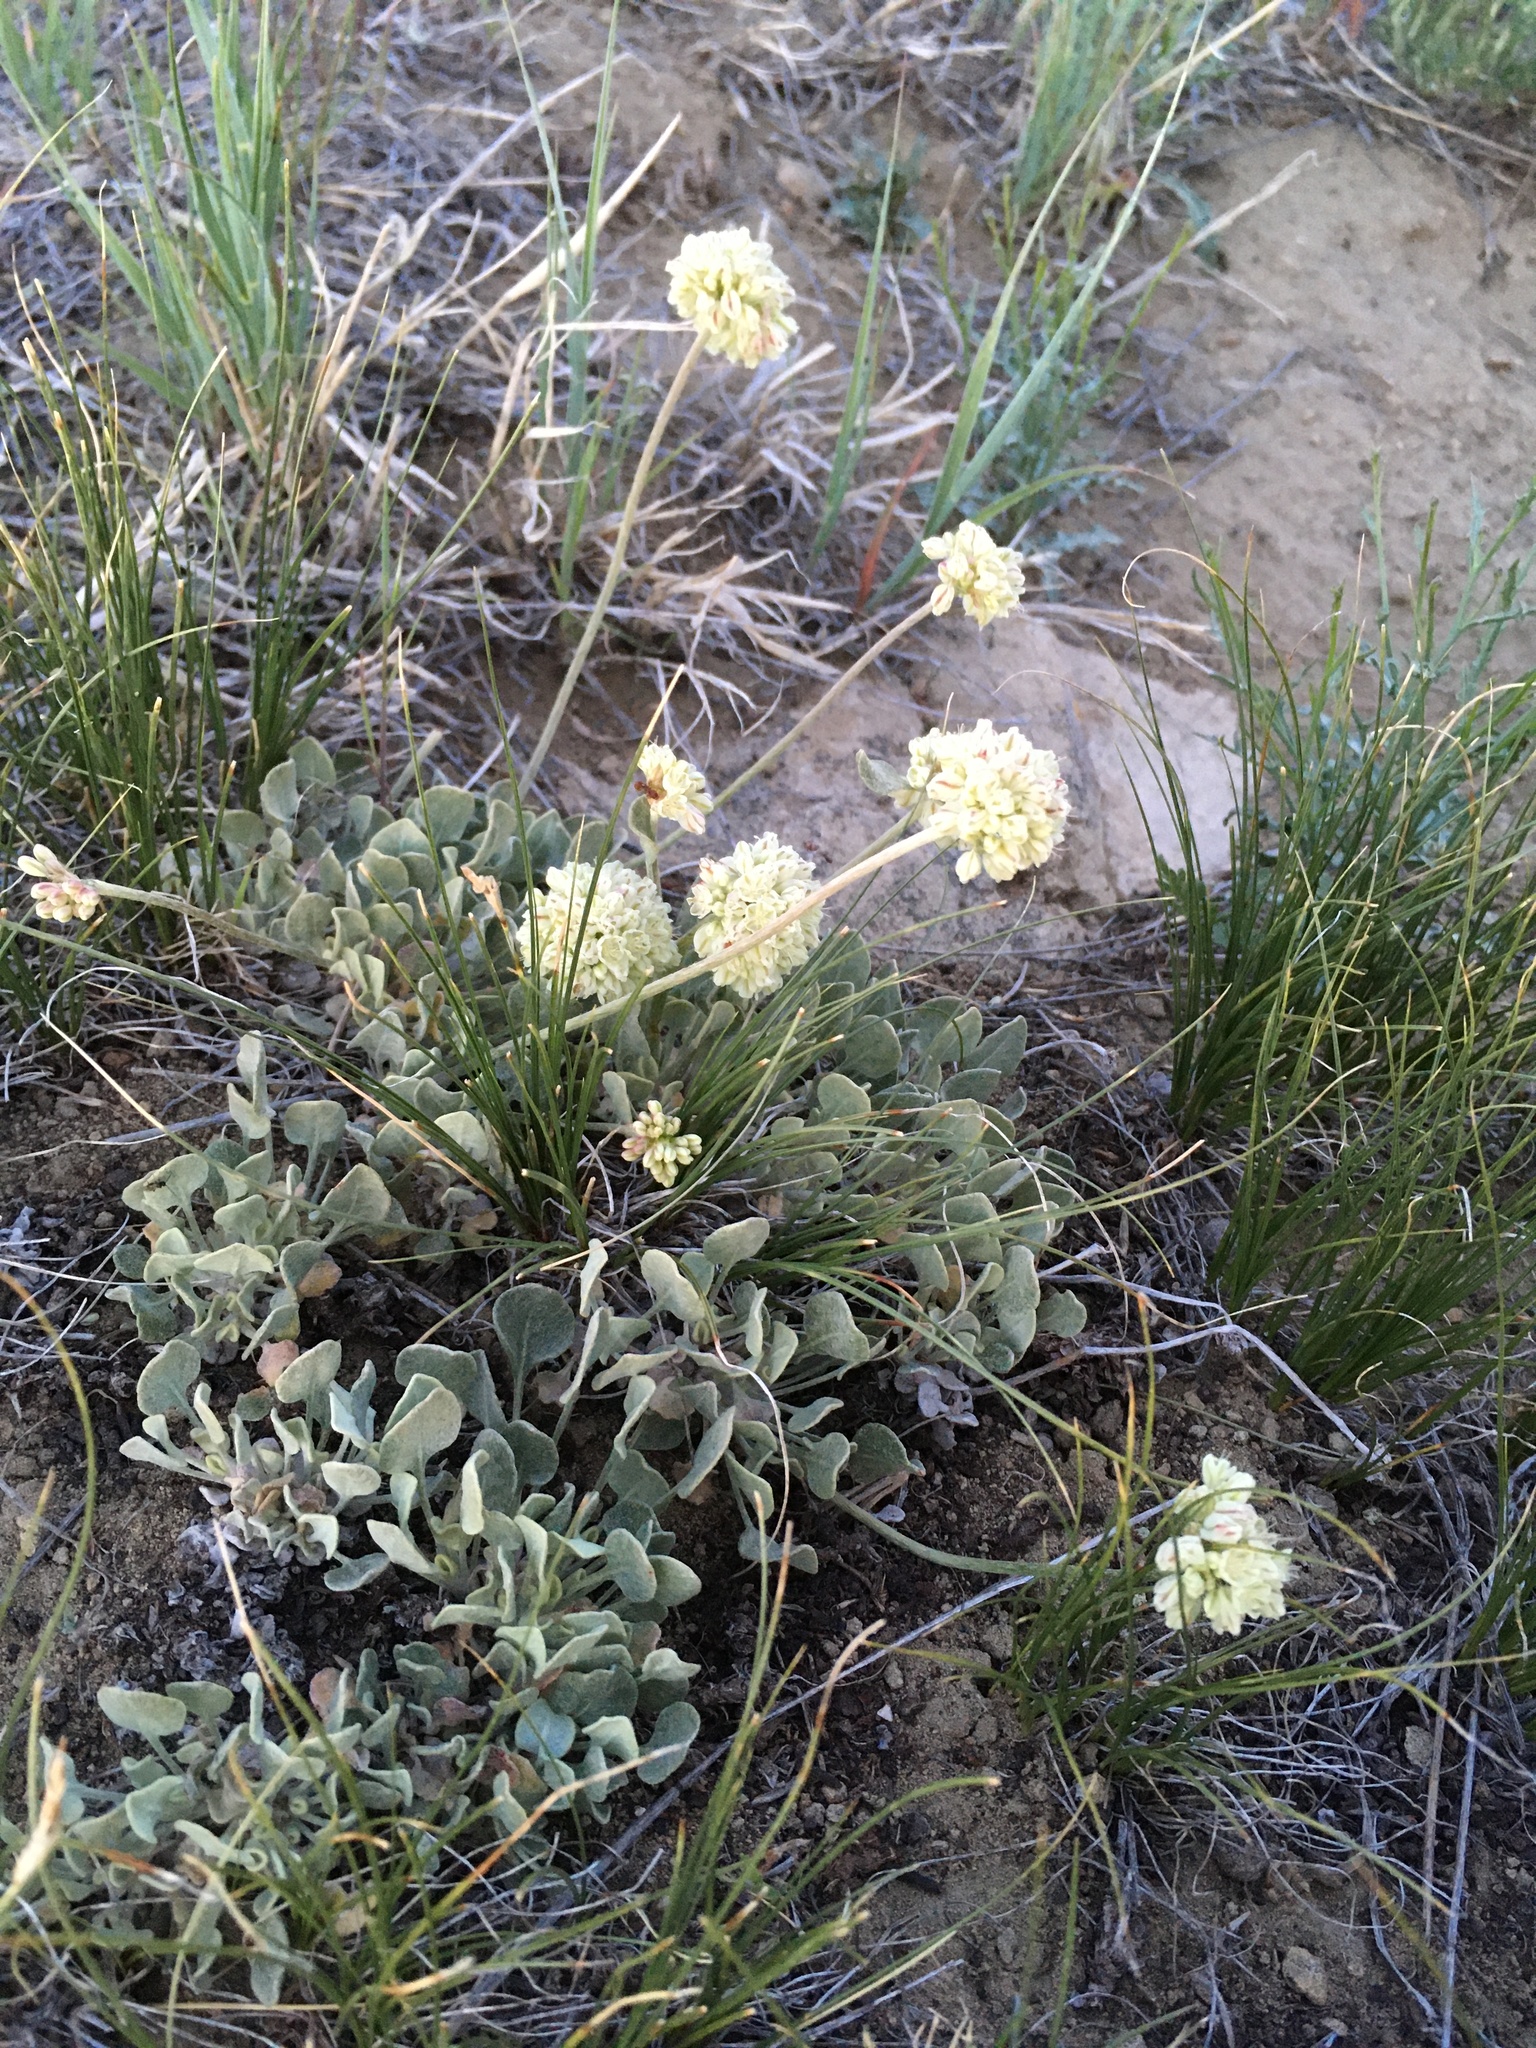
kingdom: Plantae
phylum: Tracheophyta
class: Magnoliopsida
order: Caryophyllales
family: Polygonaceae
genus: Eriogonum
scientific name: Eriogonum ovalifolium
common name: Cushion buckwheat
